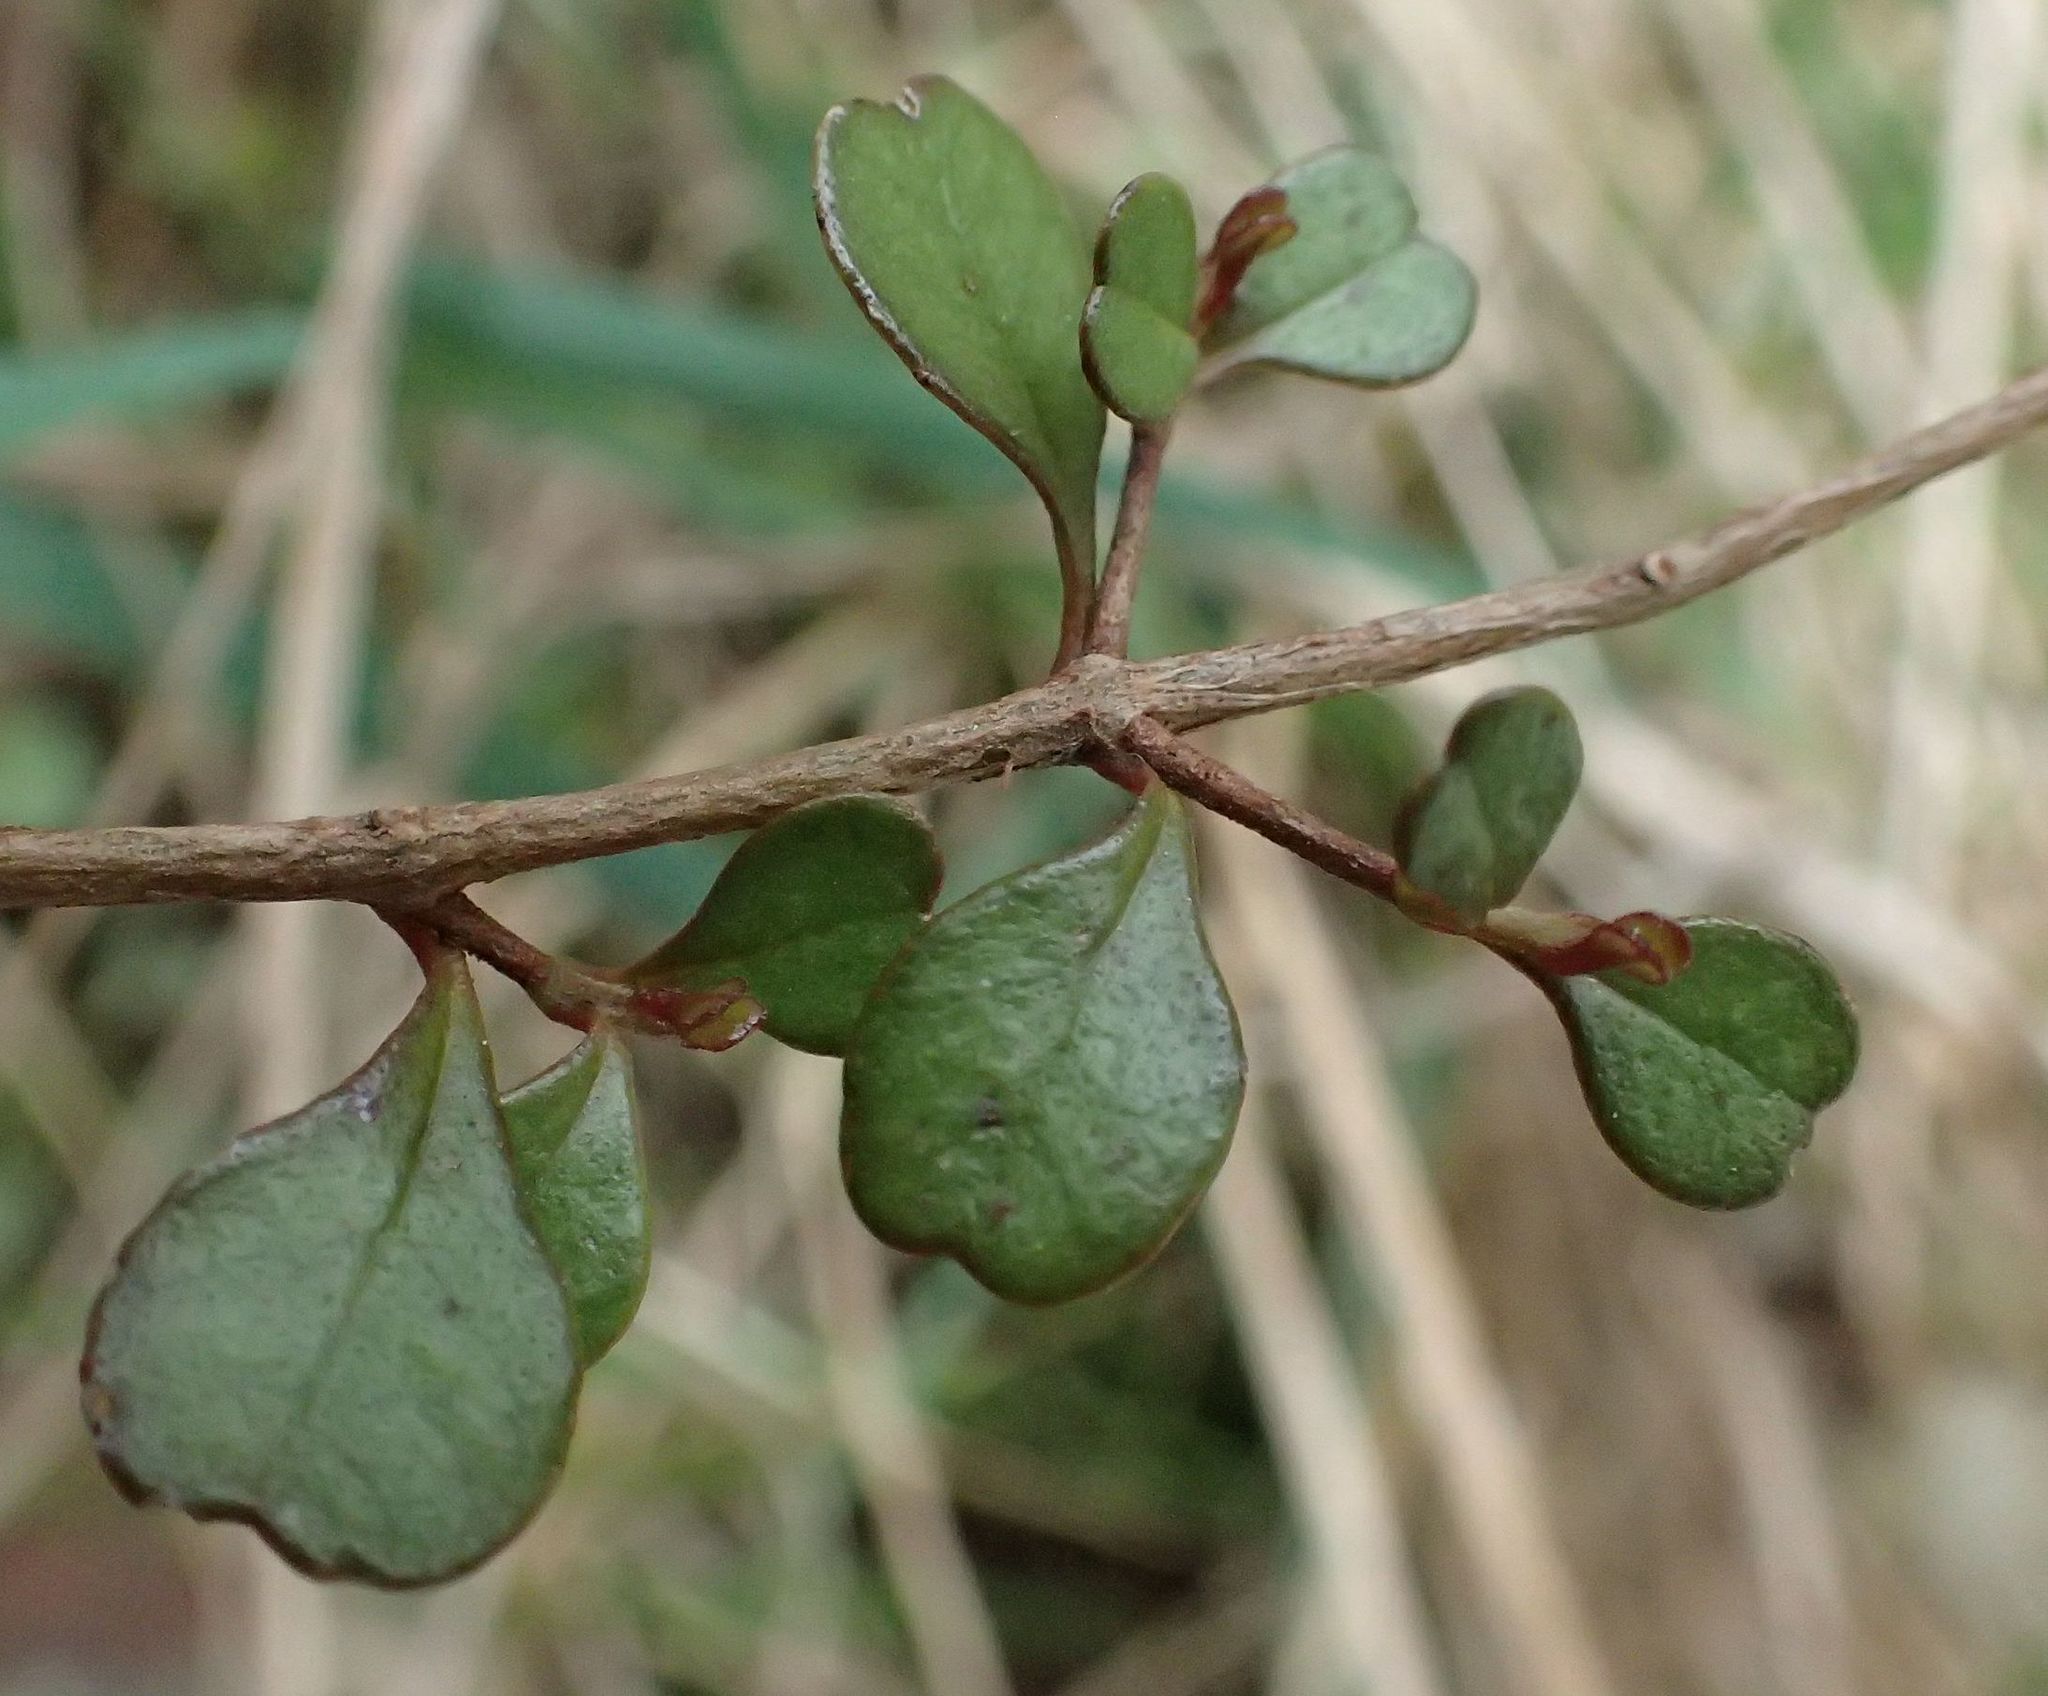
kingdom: Plantae
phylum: Tracheophyta
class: Magnoliopsida
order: Myrtales
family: Myrtaceae
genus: Lophomyrtus
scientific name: Lophomyrtus obcordata
